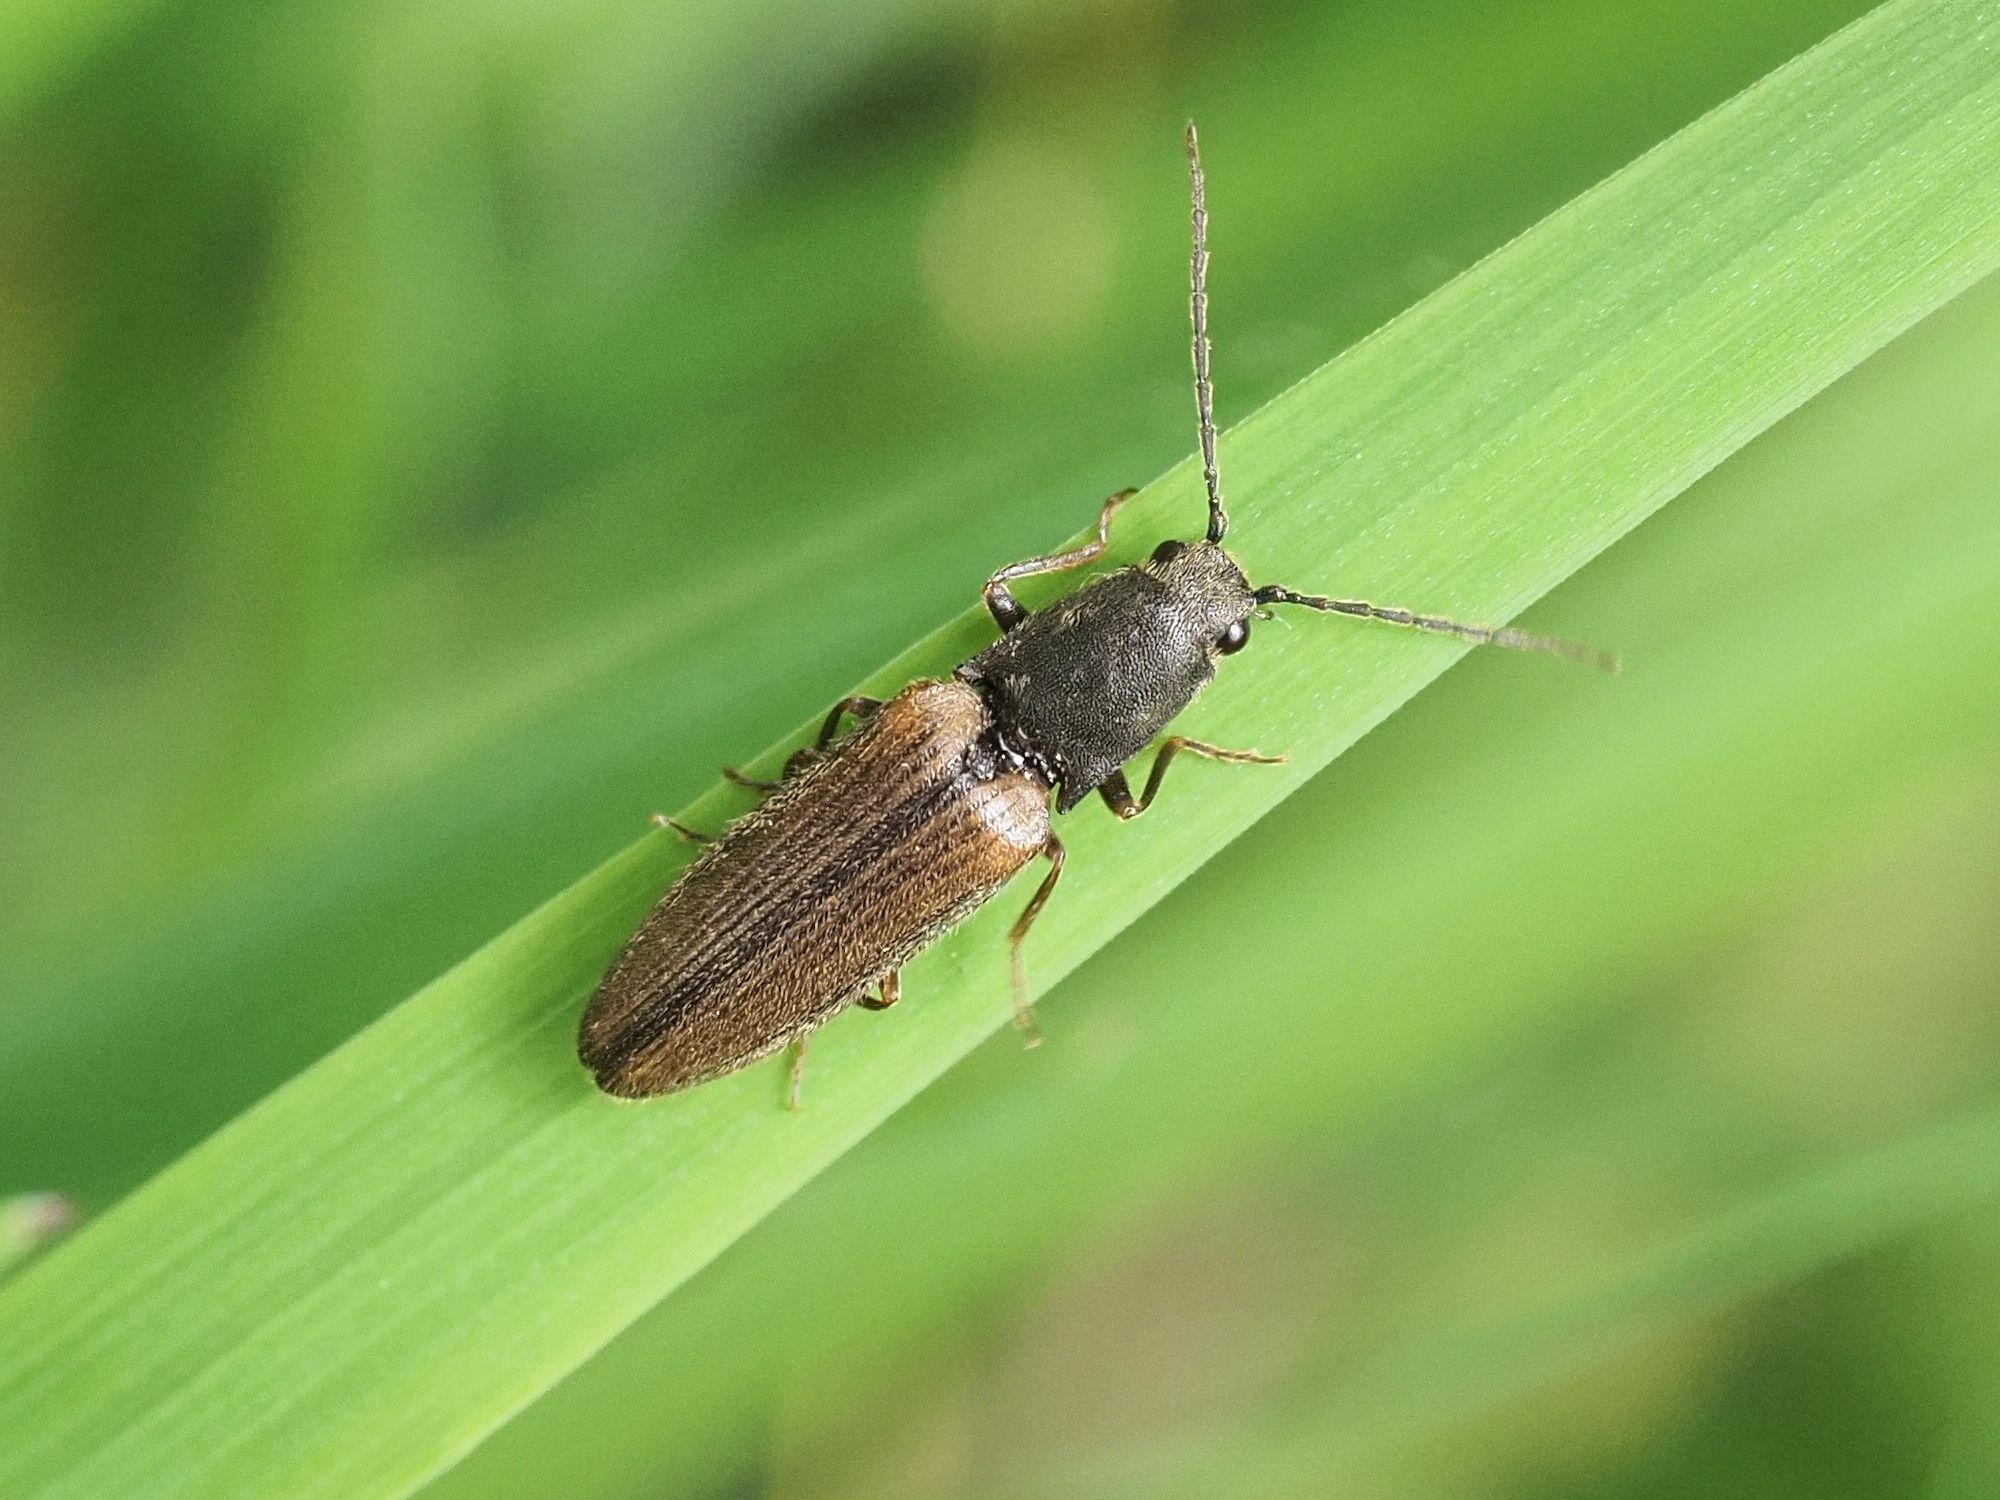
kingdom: Animalia
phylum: Arthropoda
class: Insecta
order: Coleoptera
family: Elateridae
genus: Athous
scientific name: Athous bicolor
